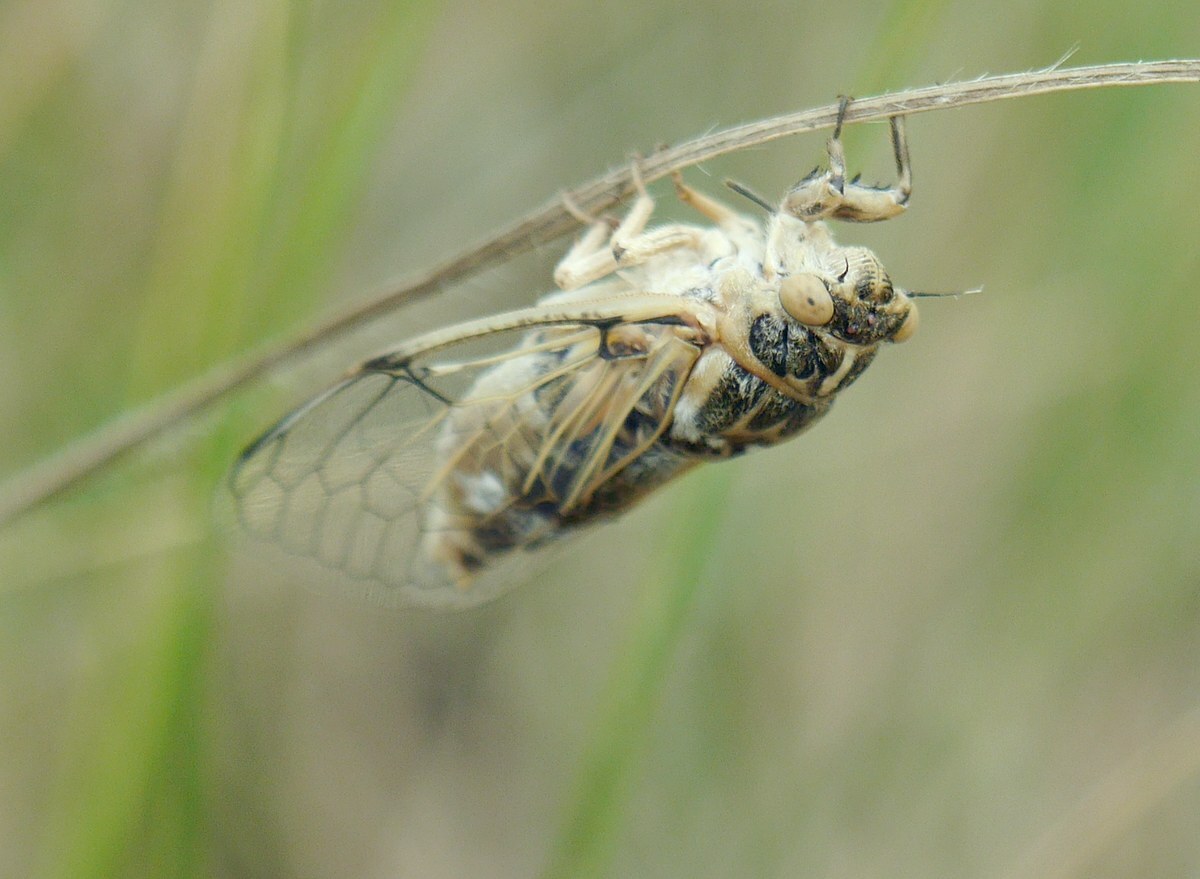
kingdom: Animalia
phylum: Arthropoda
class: Insecta
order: Hemiptera
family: Cicadidae
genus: Cicadatra
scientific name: Cicadatra platyptera
